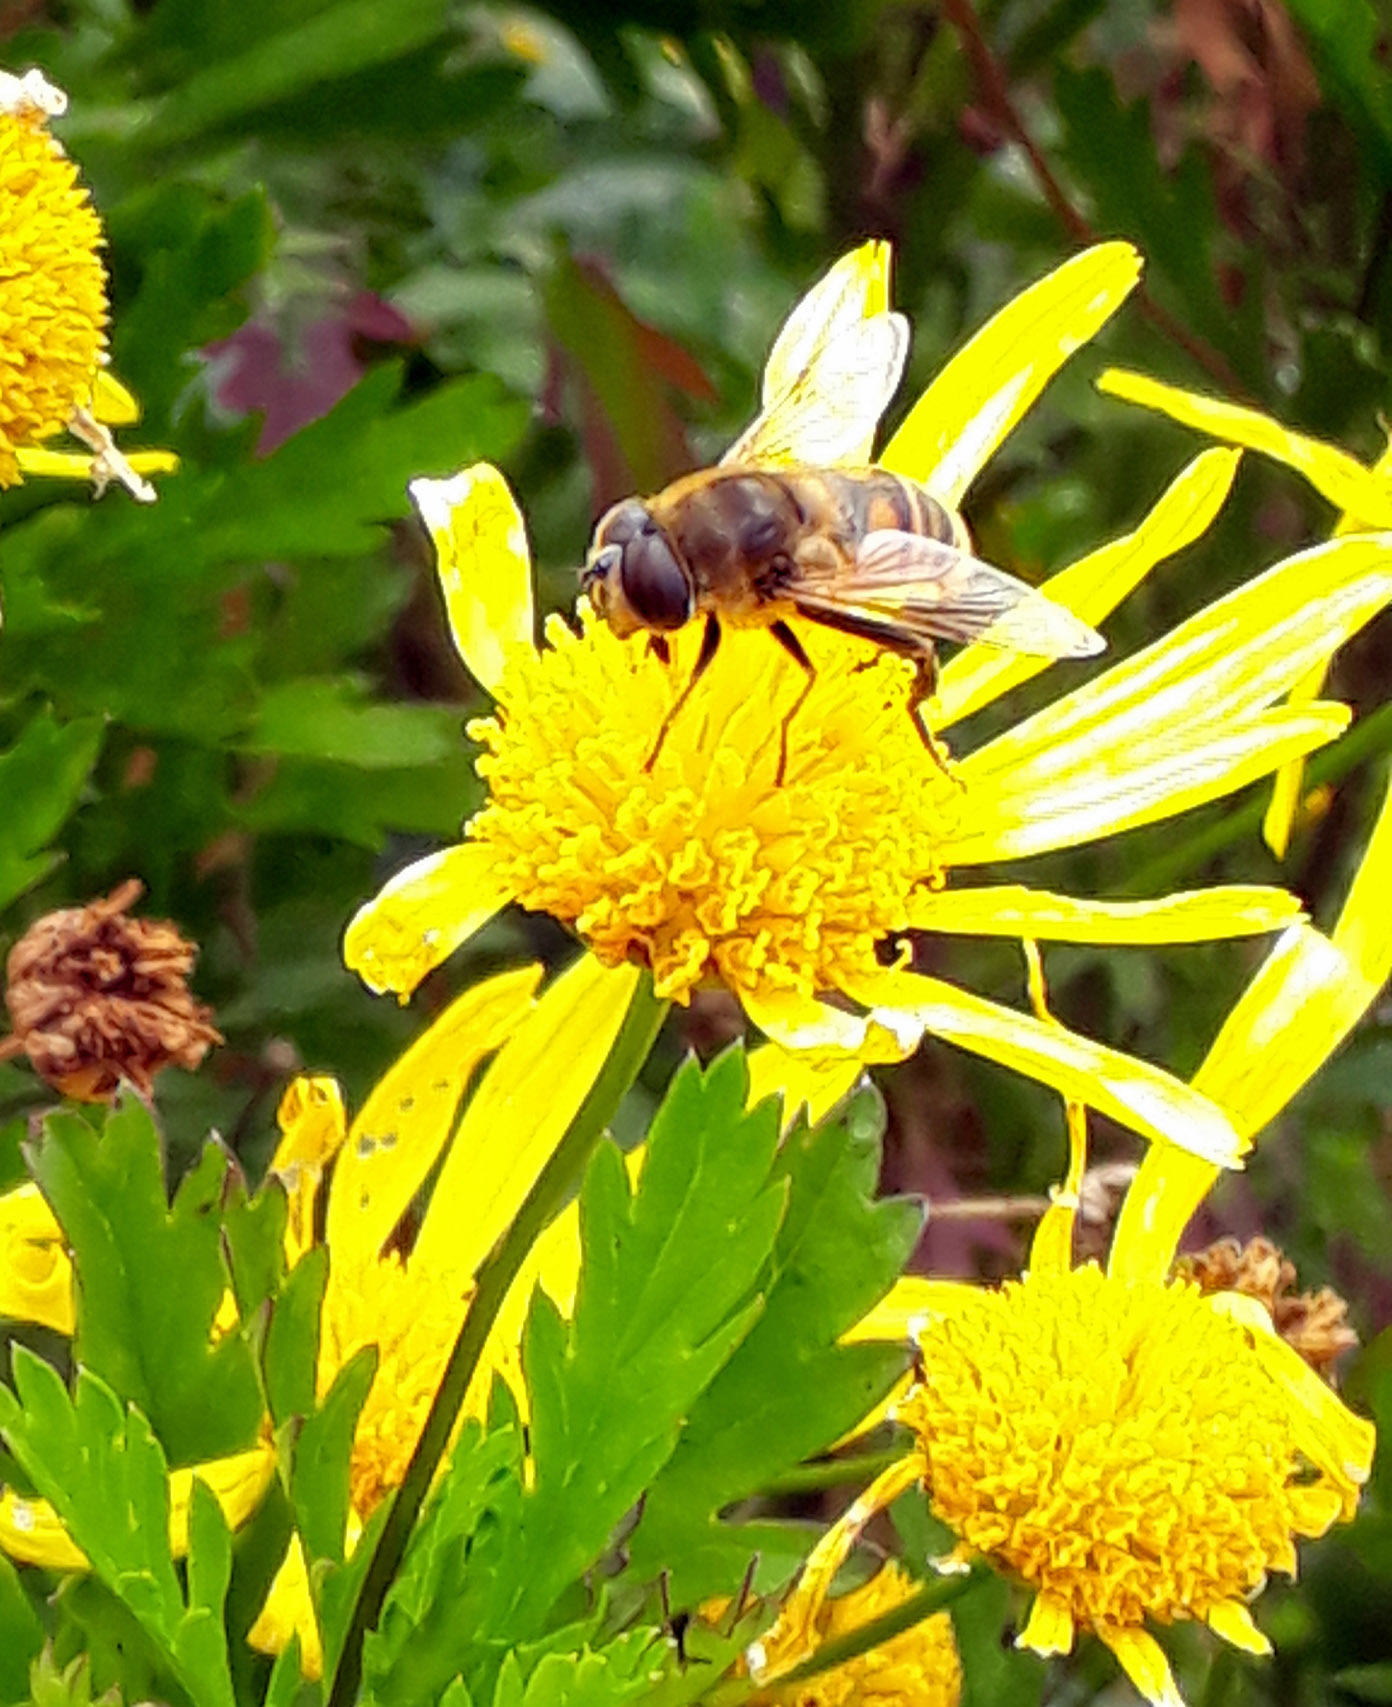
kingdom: Animalia
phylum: Arthropoda
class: Insecta
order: Diptera
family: Syrphidae
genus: Eristalis
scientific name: Eristalis tenax
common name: Drone fly
